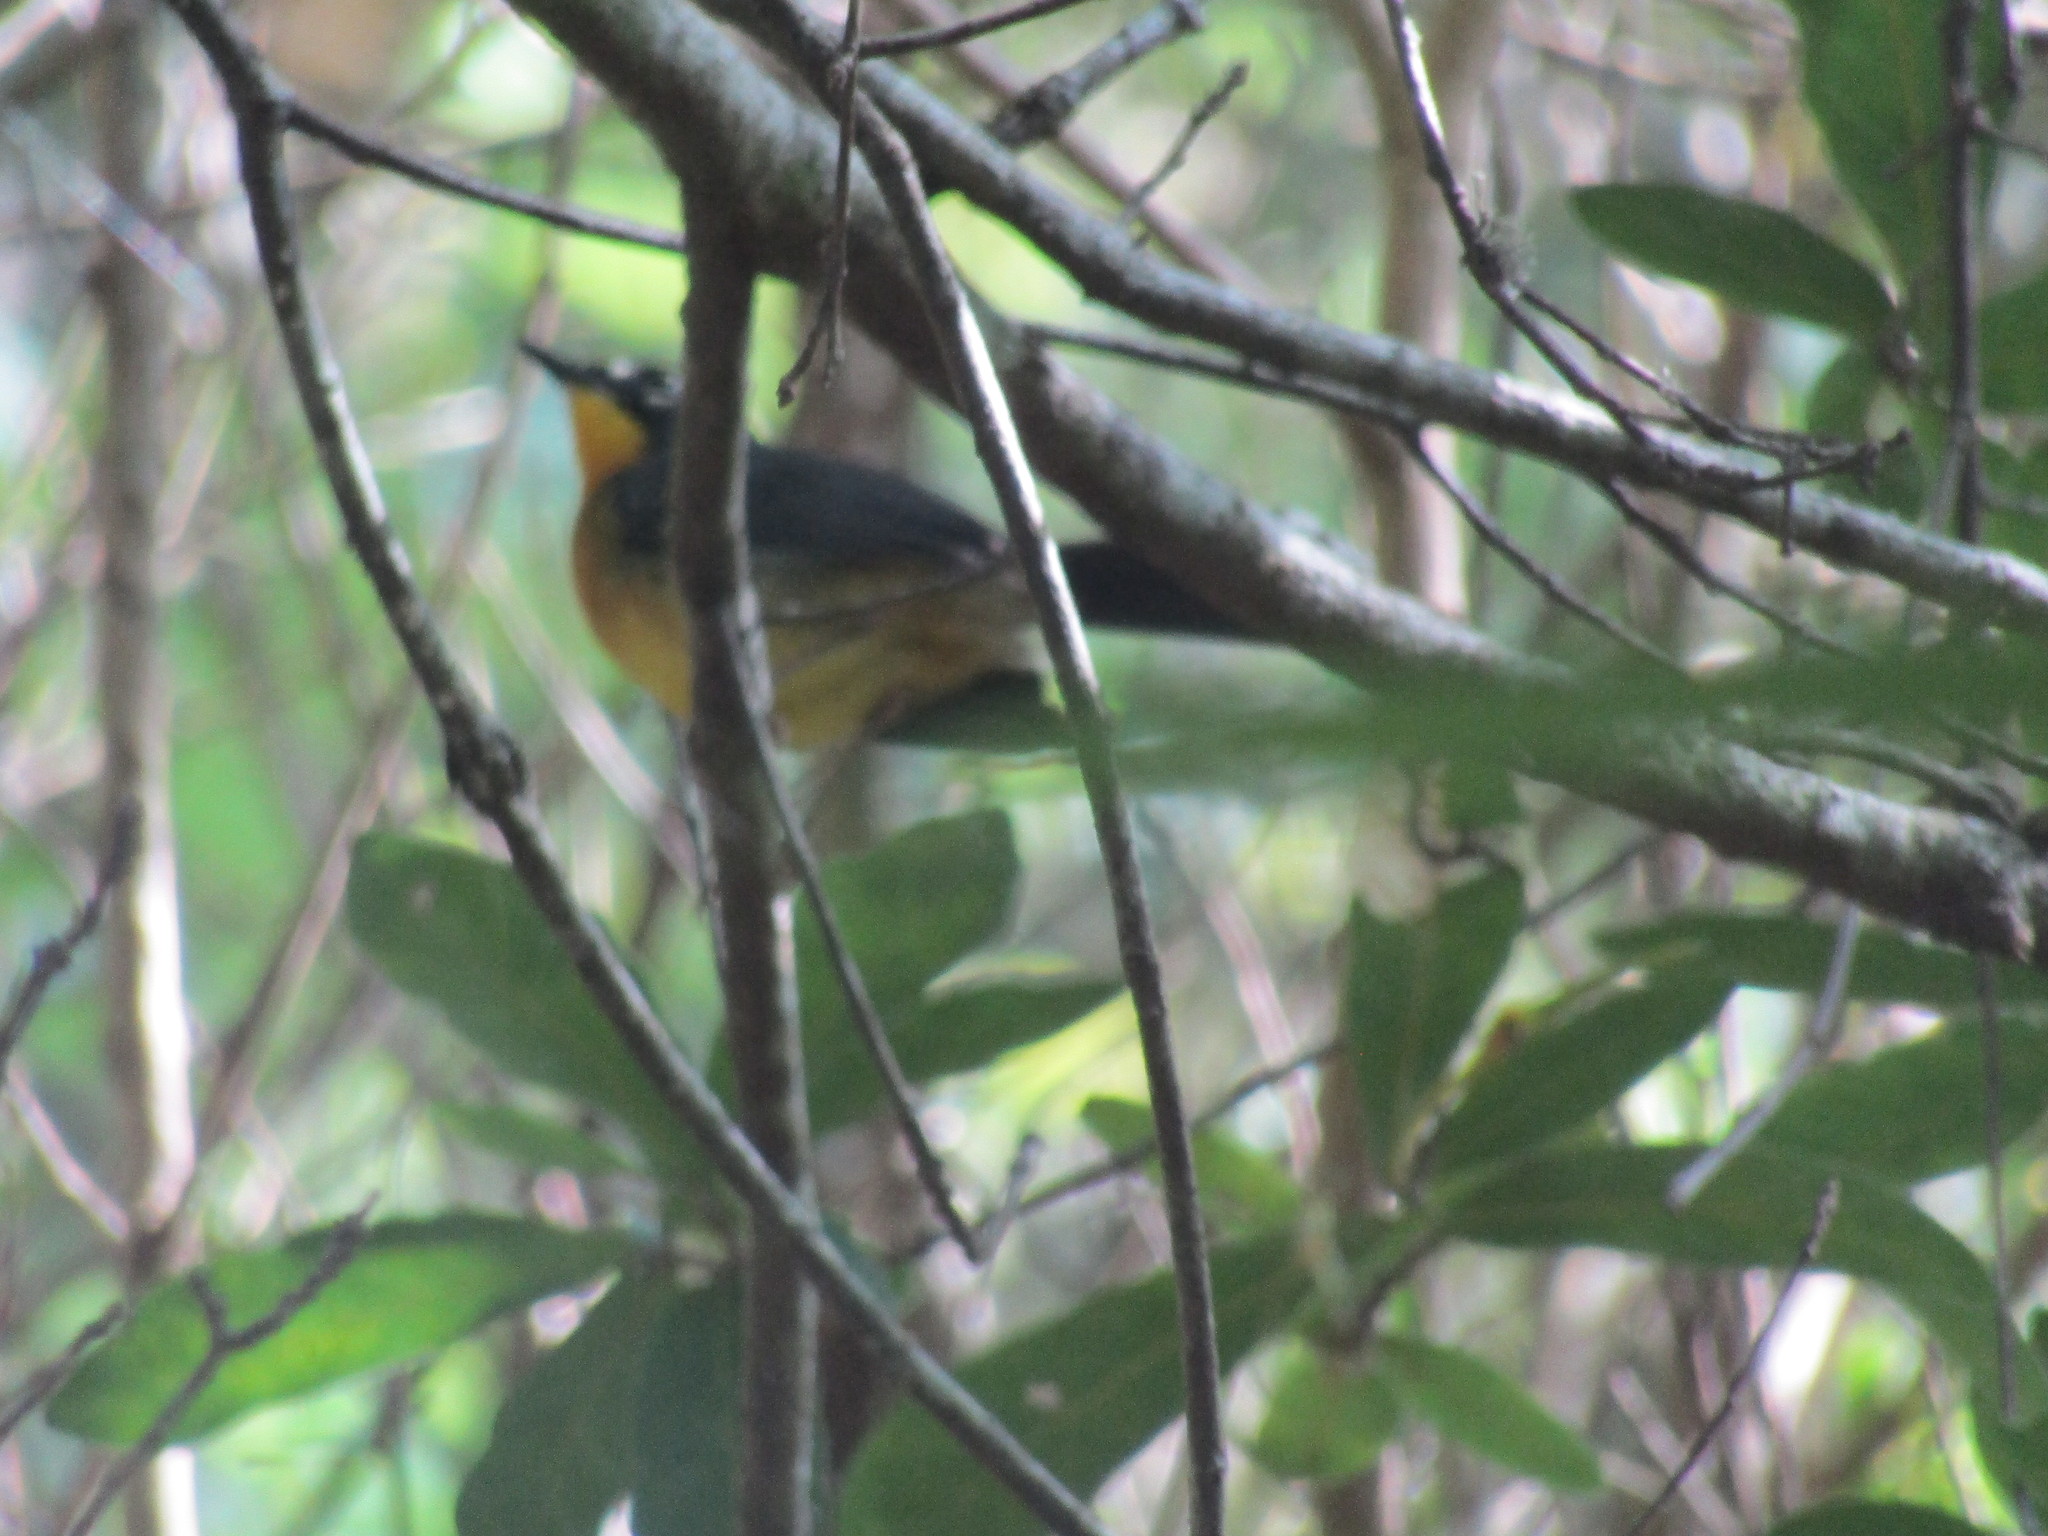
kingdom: Animalia
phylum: Chordata
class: Aves
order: Passeriformes
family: Parulidae
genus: Basileuterus
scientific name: Basileuterus lachrymosus
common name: Fan-tailed warbler
